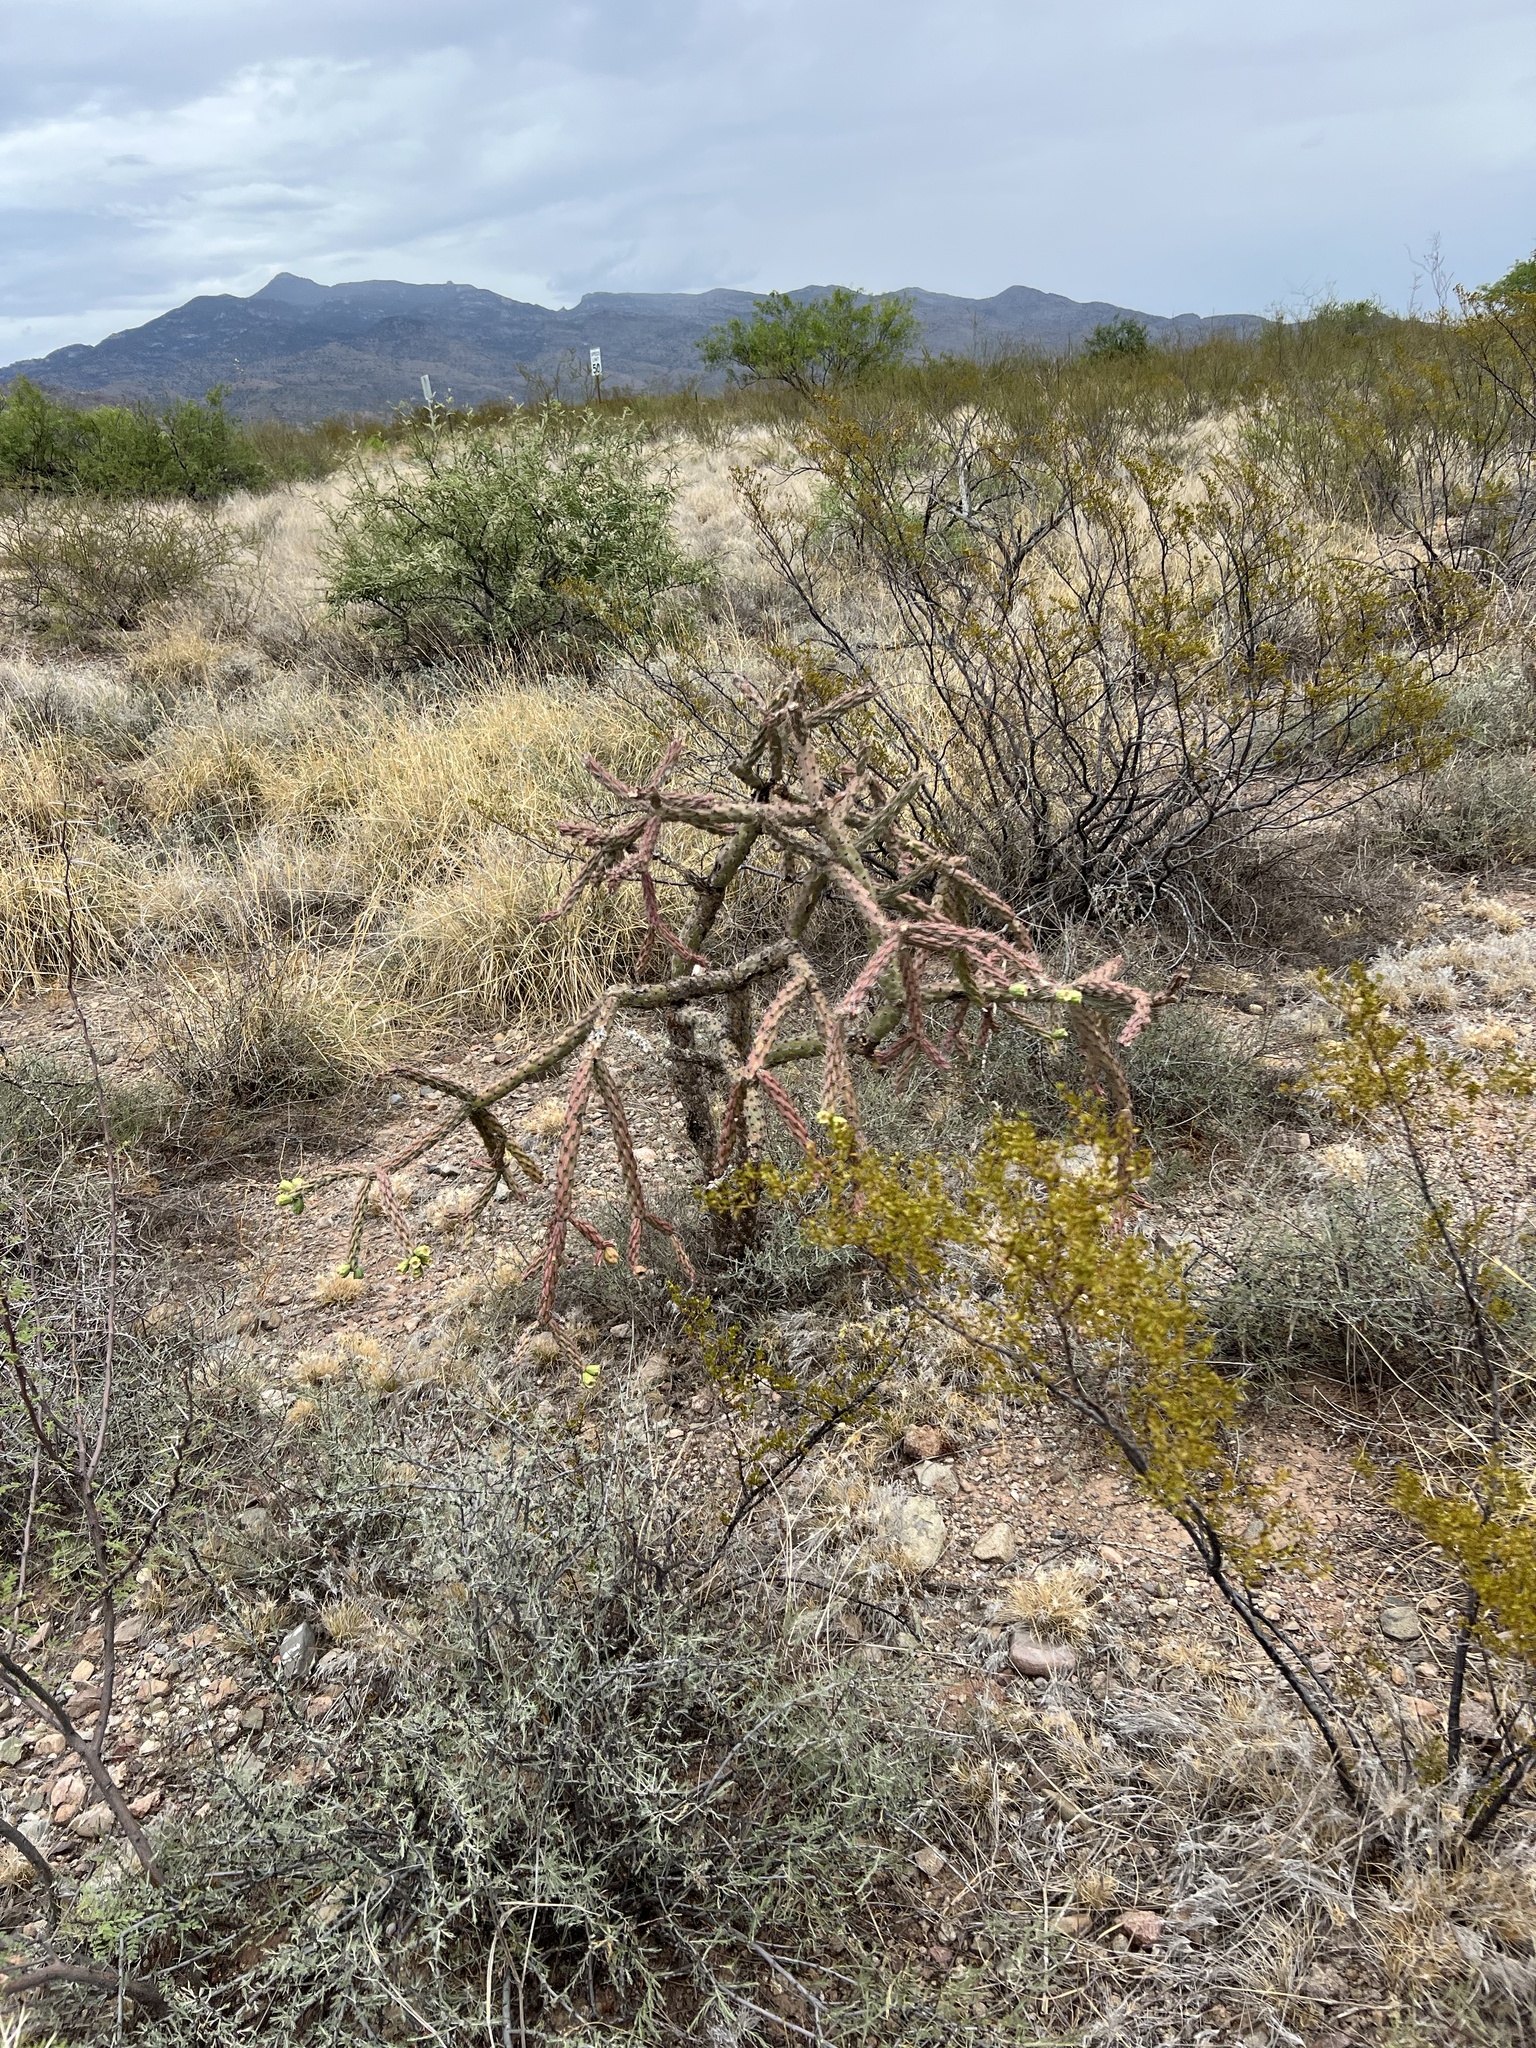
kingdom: Plantae
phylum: Tracheophyta
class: Magnoliopsida
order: Caryophyllales
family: Cactaceae
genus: Cylindropuntia
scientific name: Cylindropuntia thurberi
